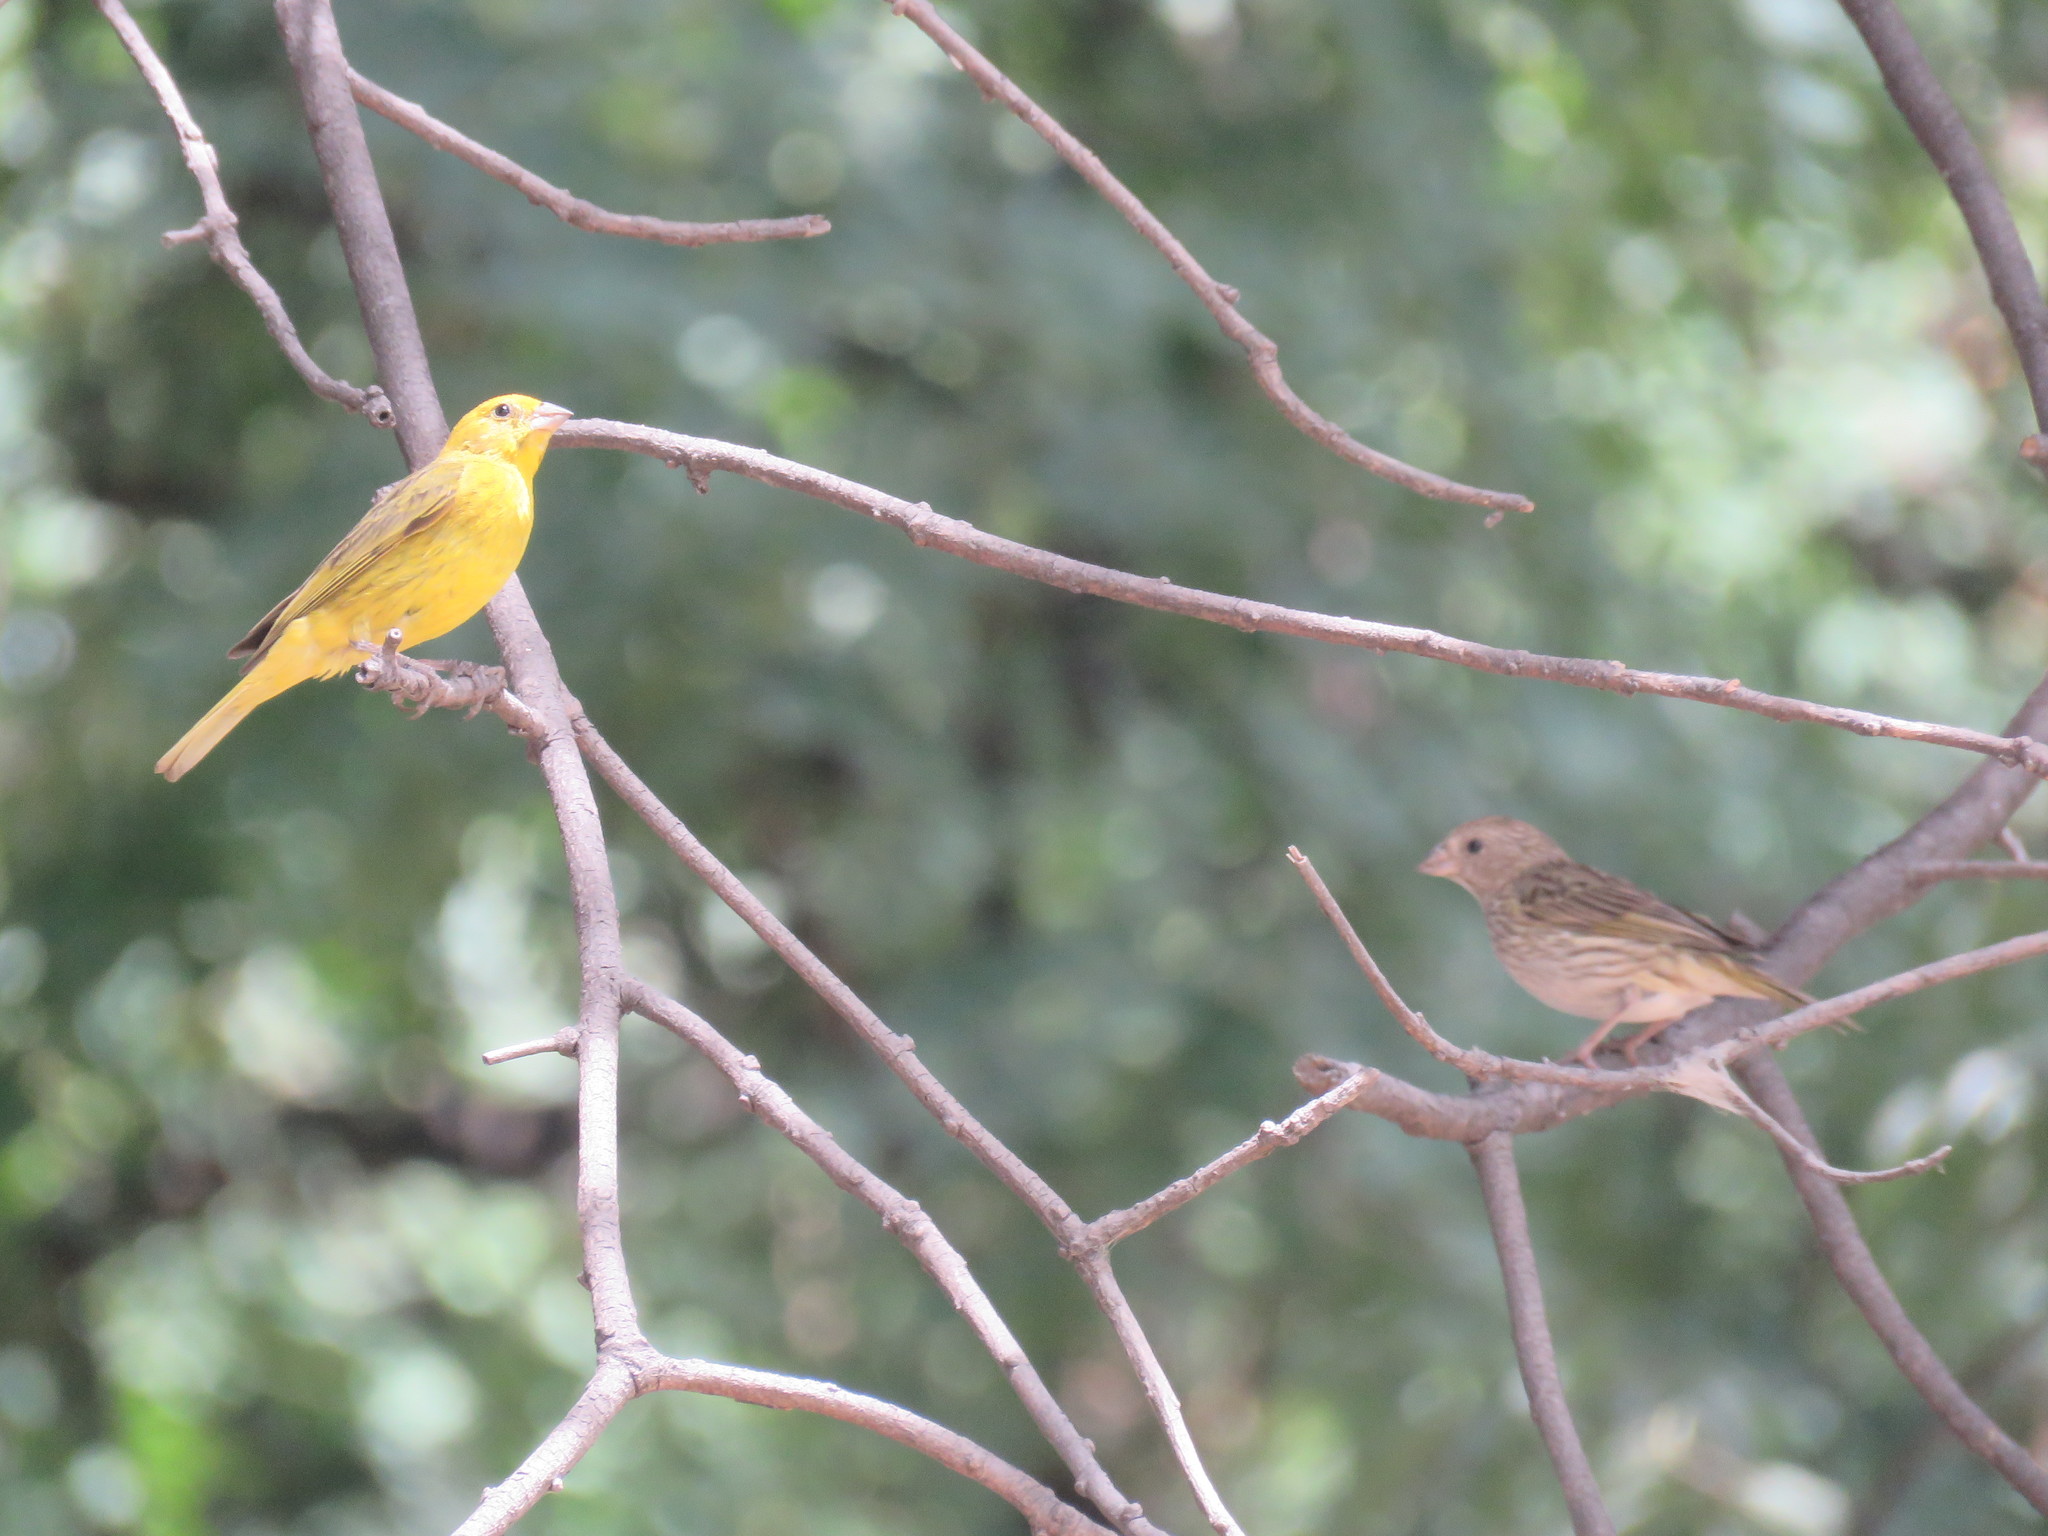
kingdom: Animalia
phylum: Chordata
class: Aves
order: Passeriformes
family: Thraupidae
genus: Sicalis
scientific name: Sicalis flaveola
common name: Saffron finch
